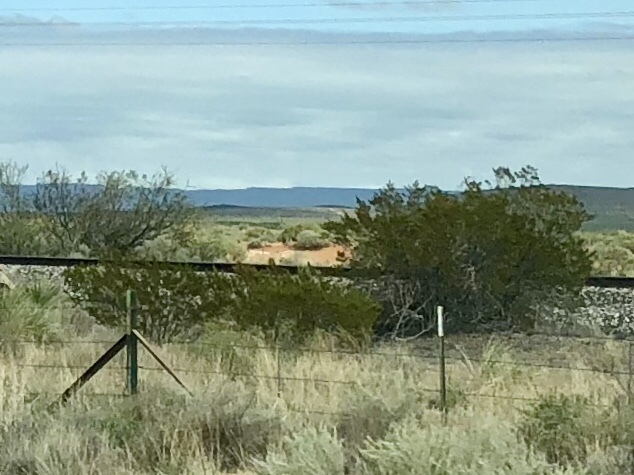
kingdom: Plantae
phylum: Tracheophyta
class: Magnoliopsida
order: Zygophyllales
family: Zygophyllaceae
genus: Larrea
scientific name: Larrea tridentata
